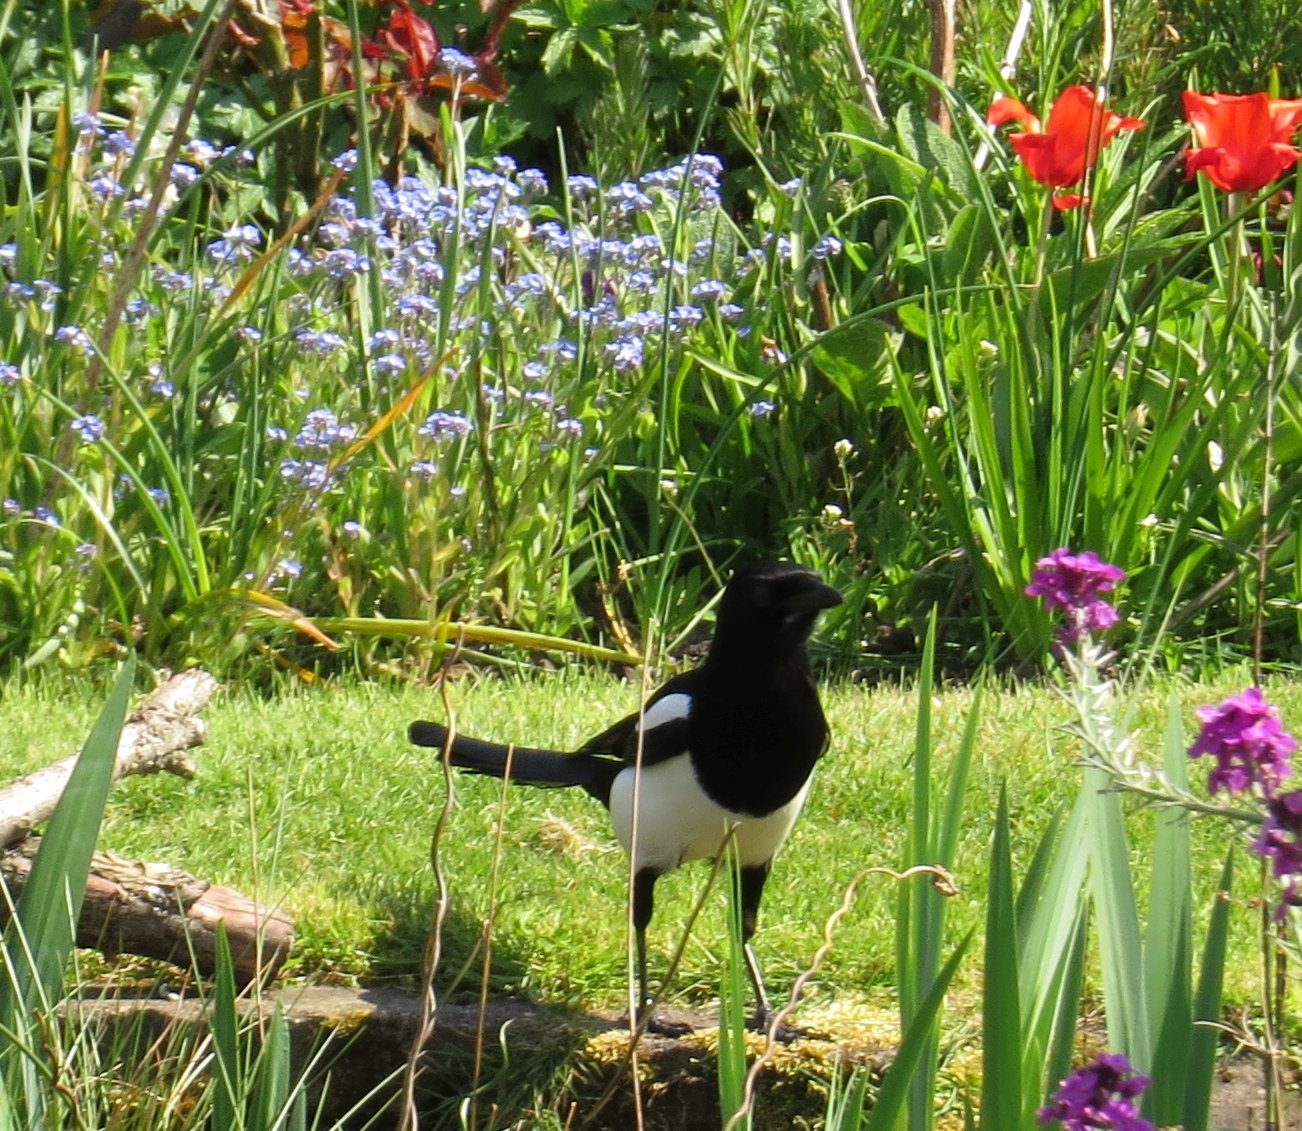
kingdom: Animalia
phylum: Chordata
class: Aves
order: Passeriformes
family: Corvidae
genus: Pica
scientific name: Pica pica
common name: Eurasian magpie
